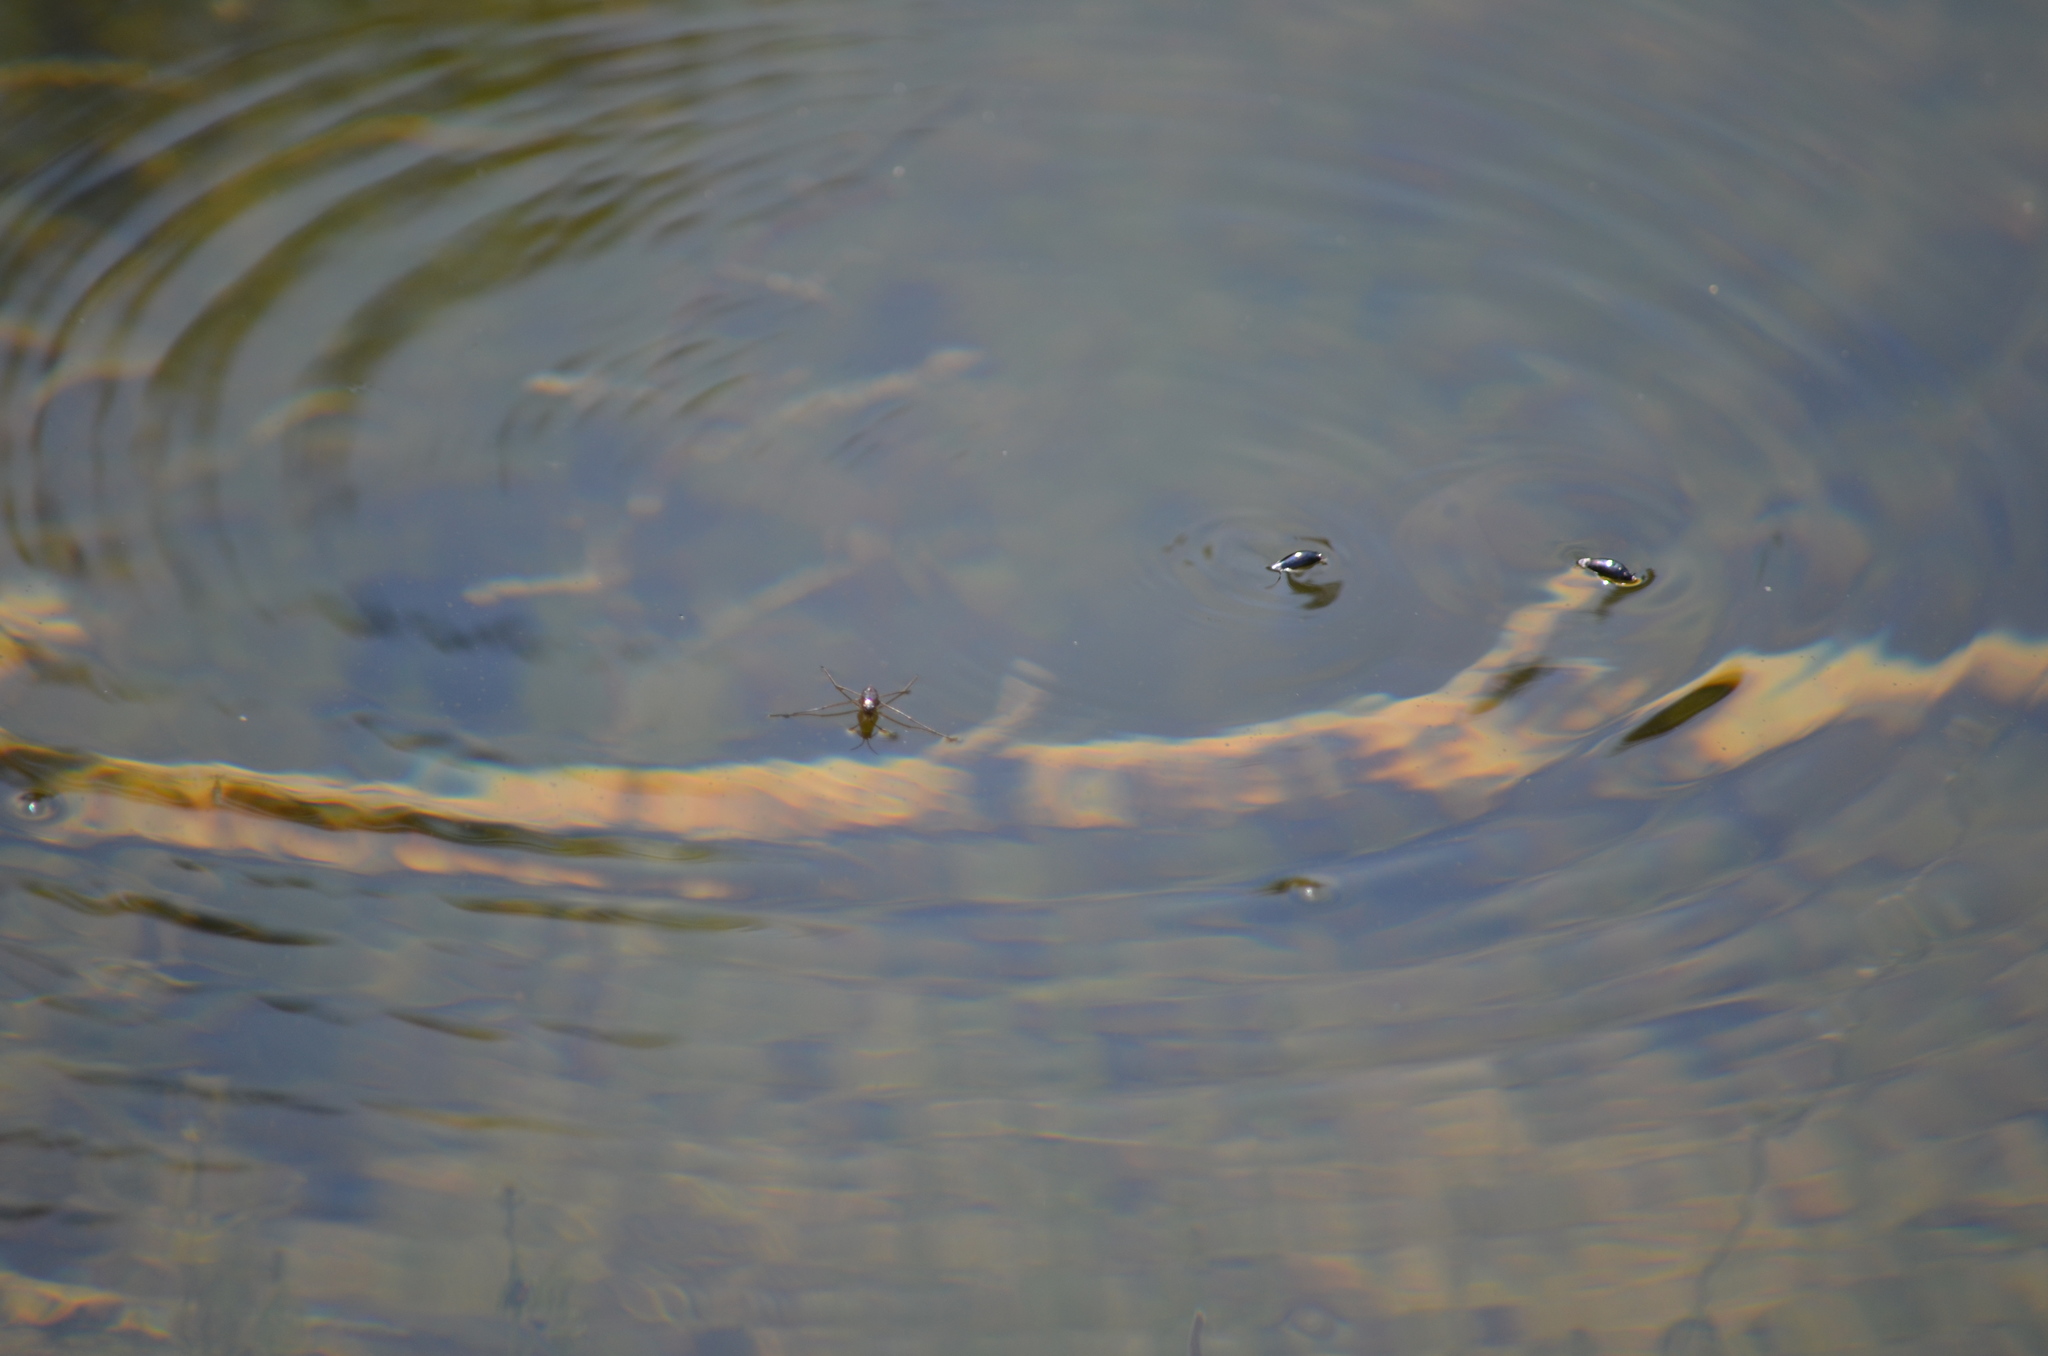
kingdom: Animalia
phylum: Arthropoda
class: Insecta
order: Hemiptera
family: Gerridae
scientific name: Gerridae
